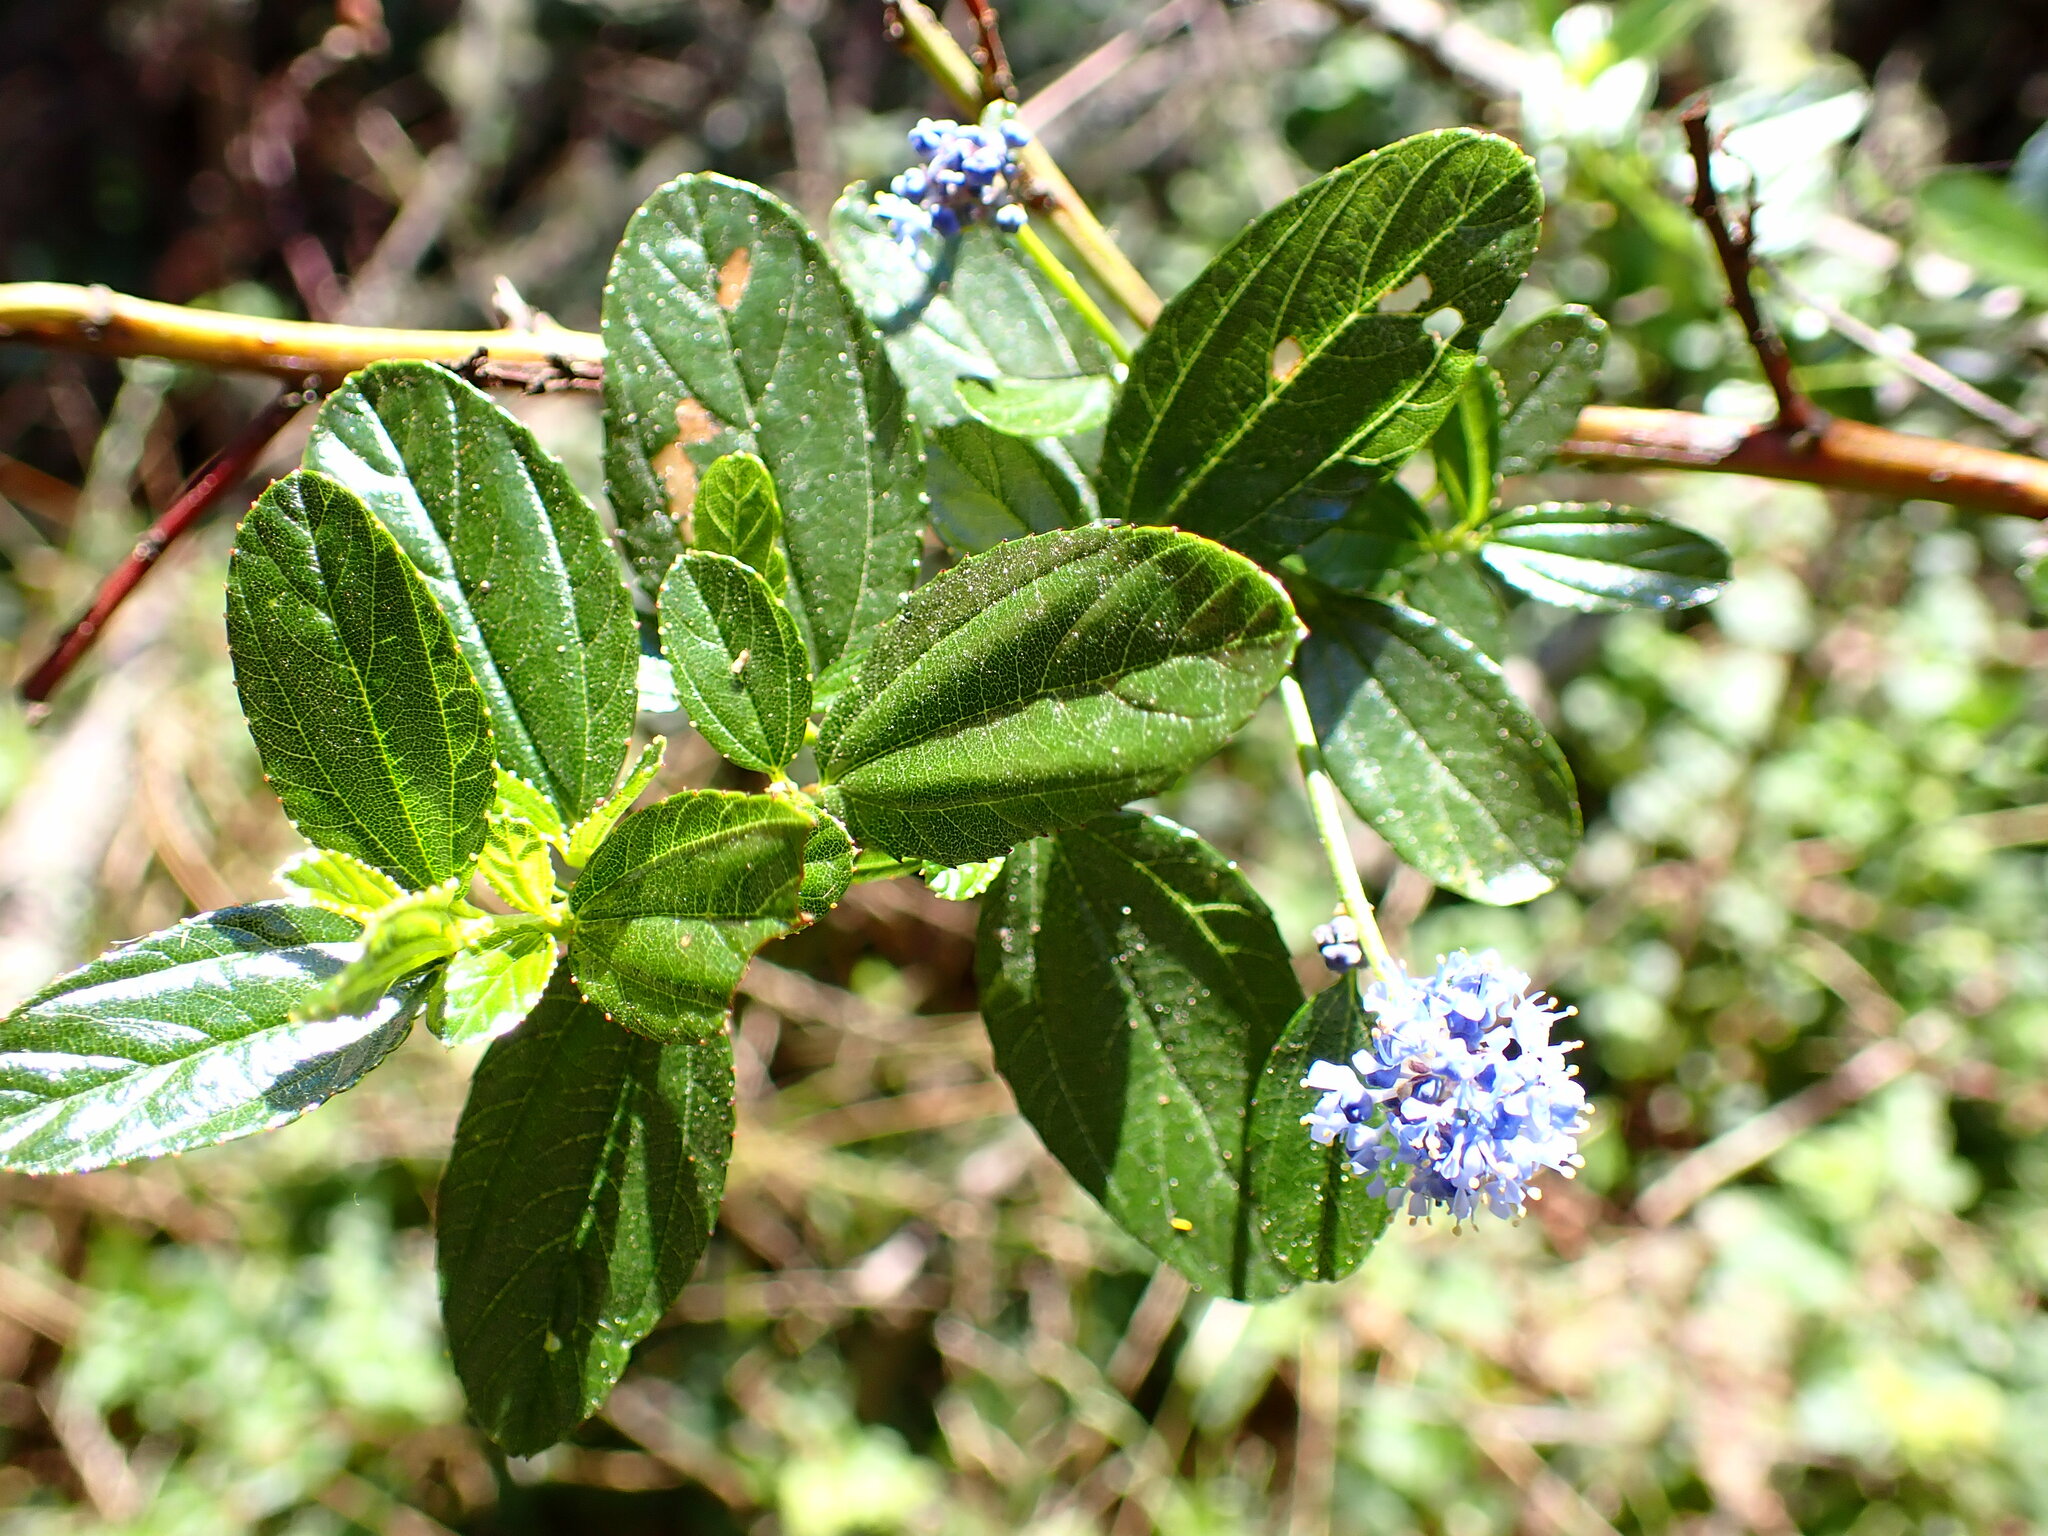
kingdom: Plantae
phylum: Tracheophyta
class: Magnoliopsida
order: Rosales
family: Rhamnaceae
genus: Ceanothus
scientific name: Ceanothus thyrsiflorus
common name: California-lilac
